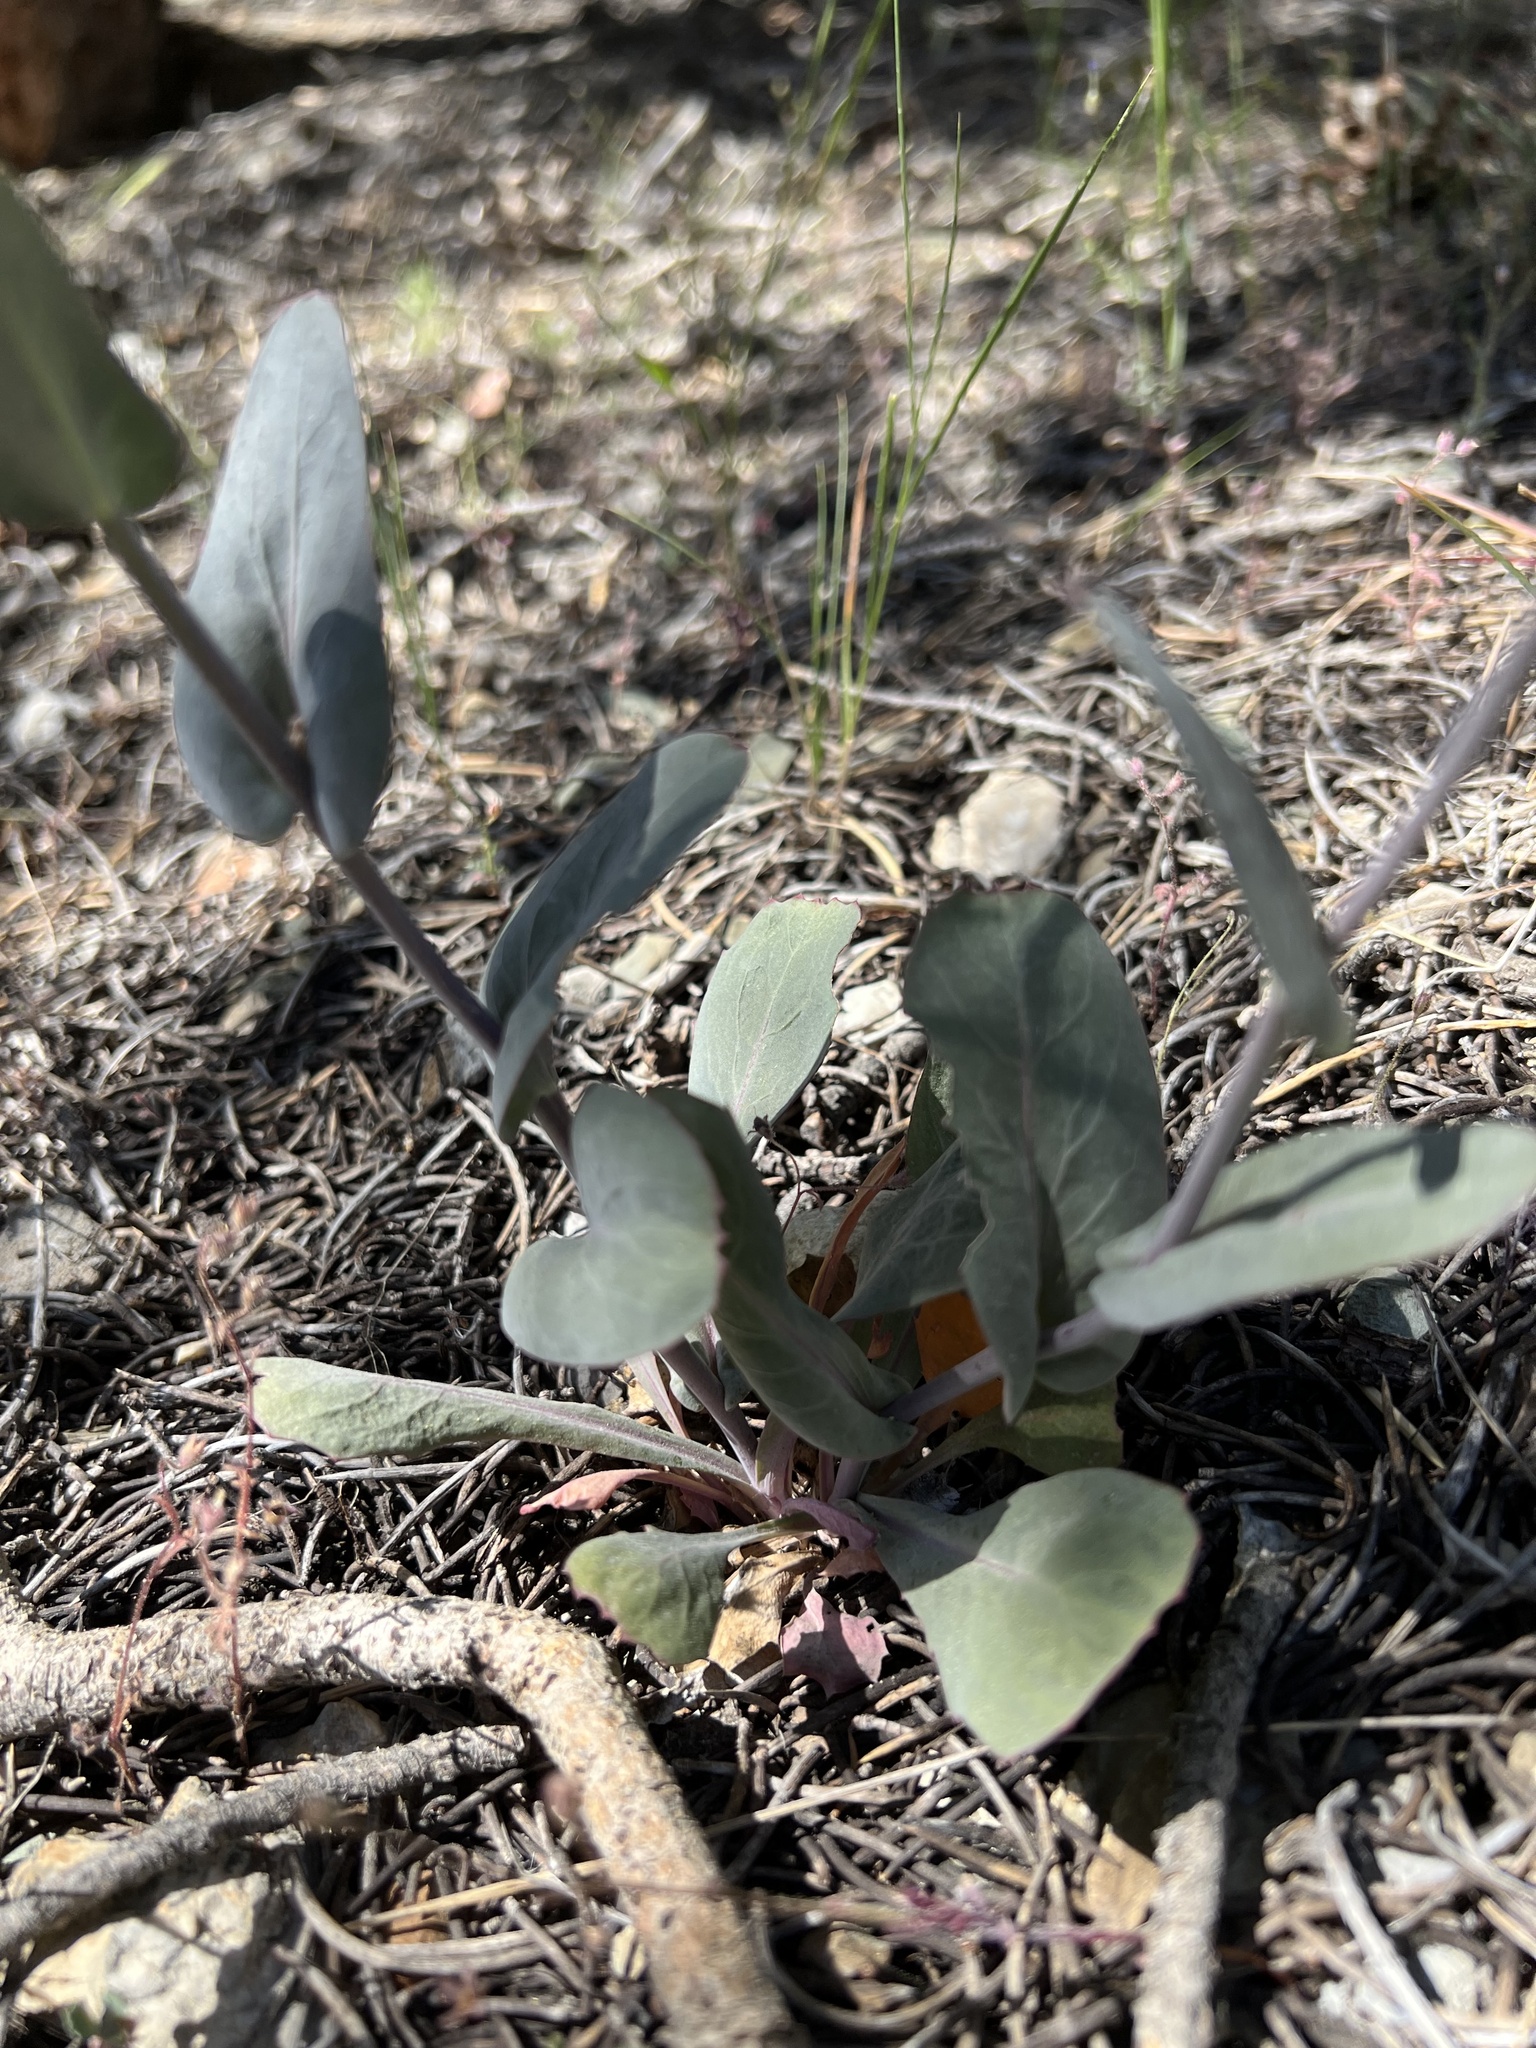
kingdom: Plantae
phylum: Tracheophyta
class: Magnoliopsida
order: Brassicales
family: Brassicaceae
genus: Streptanthus
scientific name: Streptanthus cordatus
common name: Heart-leaf jewel-flower
